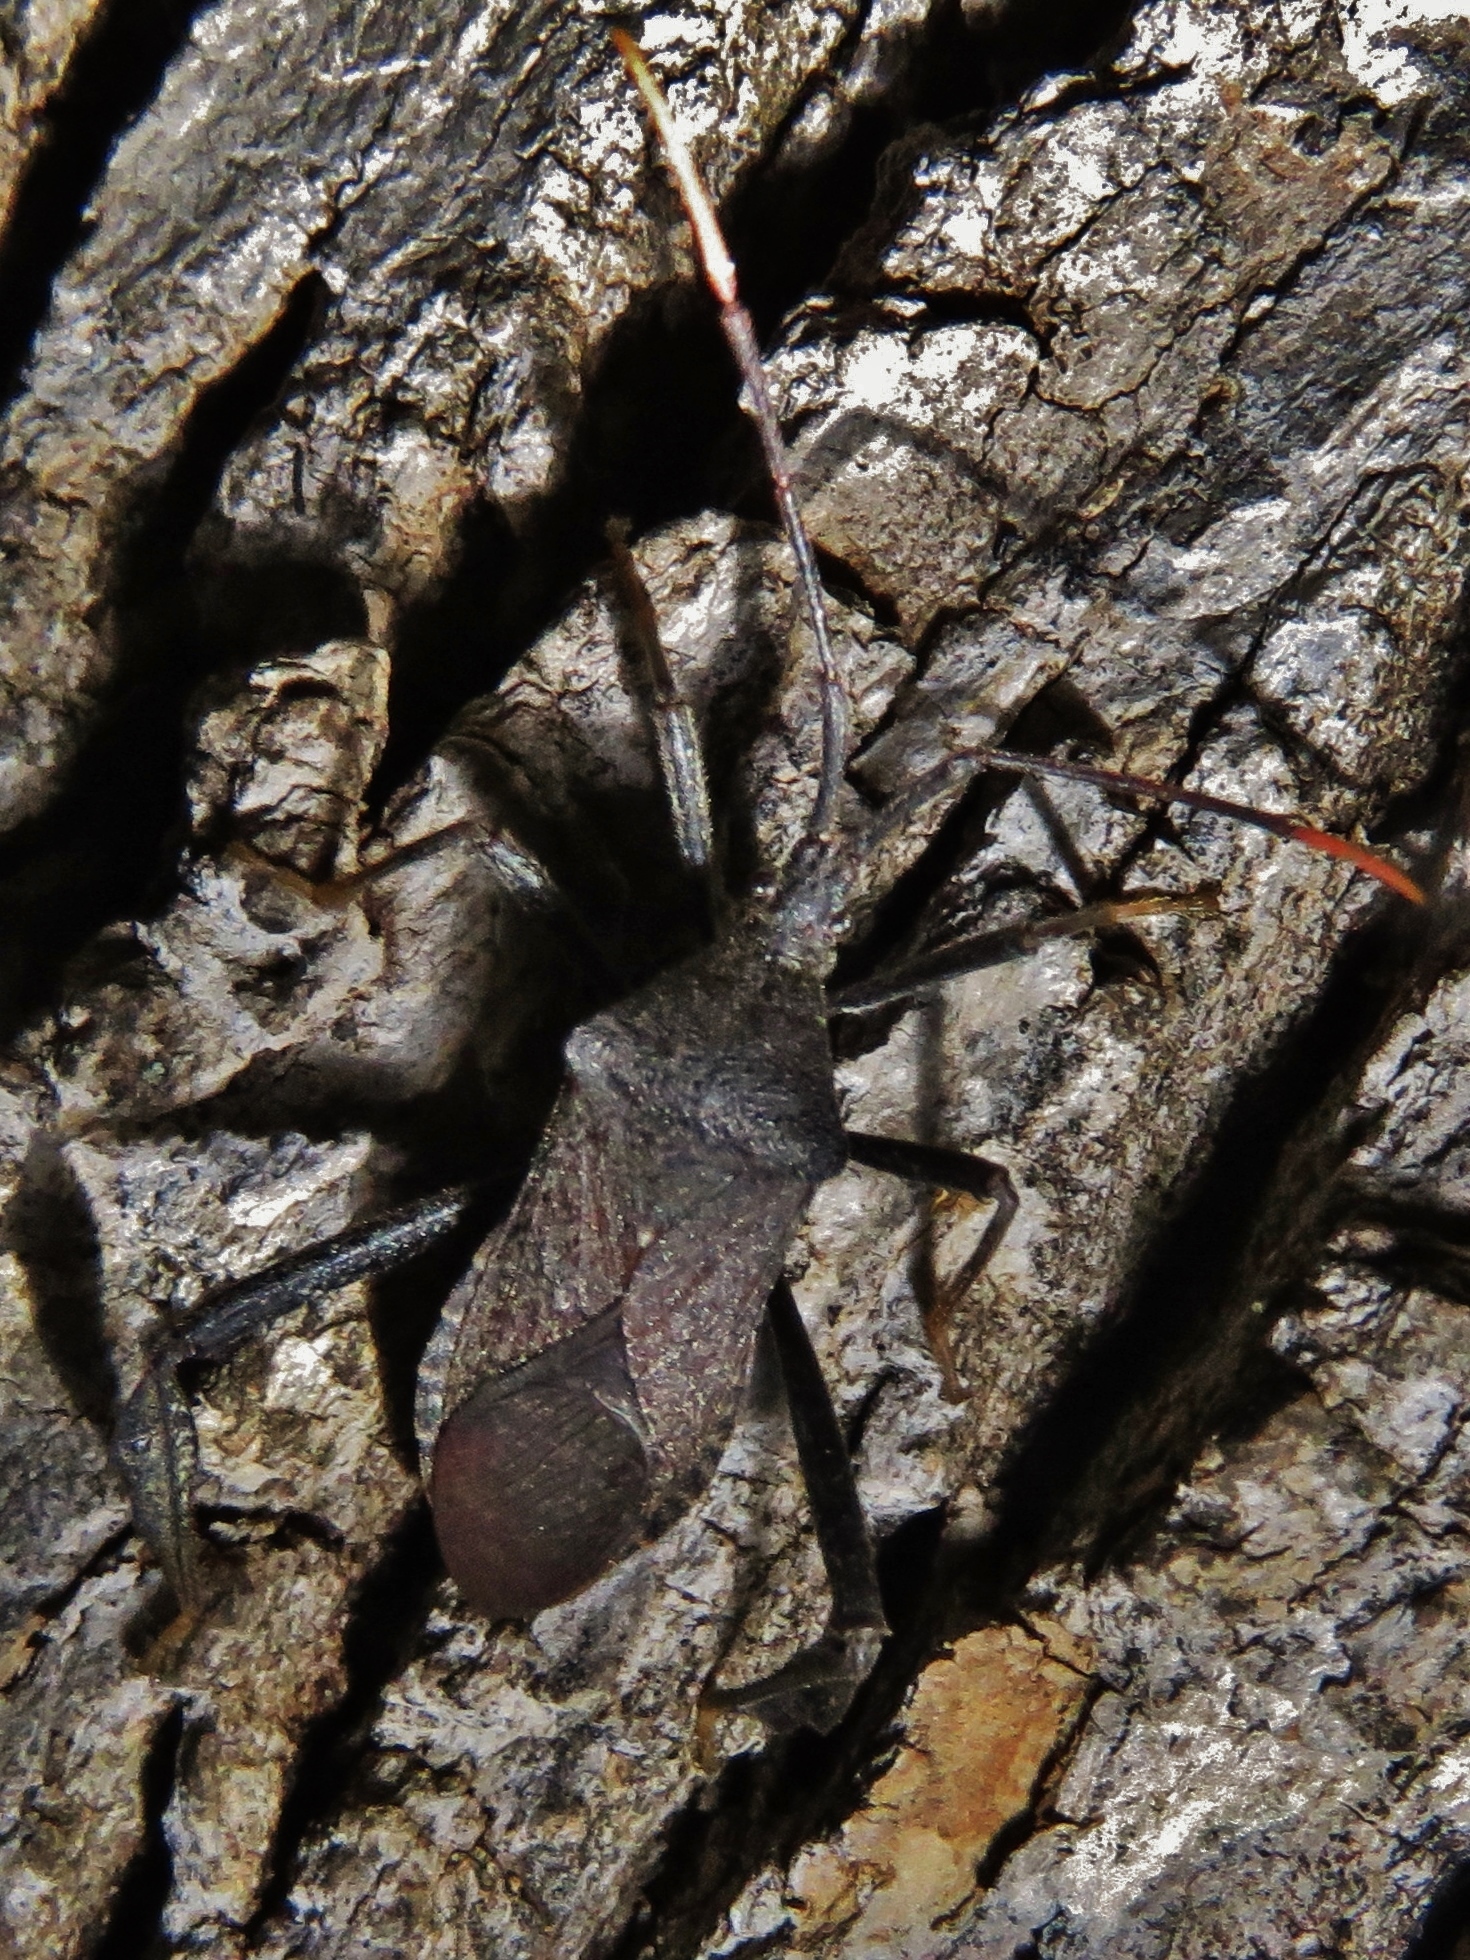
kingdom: Animalia
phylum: Arthropoda
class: Insecta
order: Hemiptera
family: Coreidae
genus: Acanthocephala
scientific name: Acanthocephala terminalis
